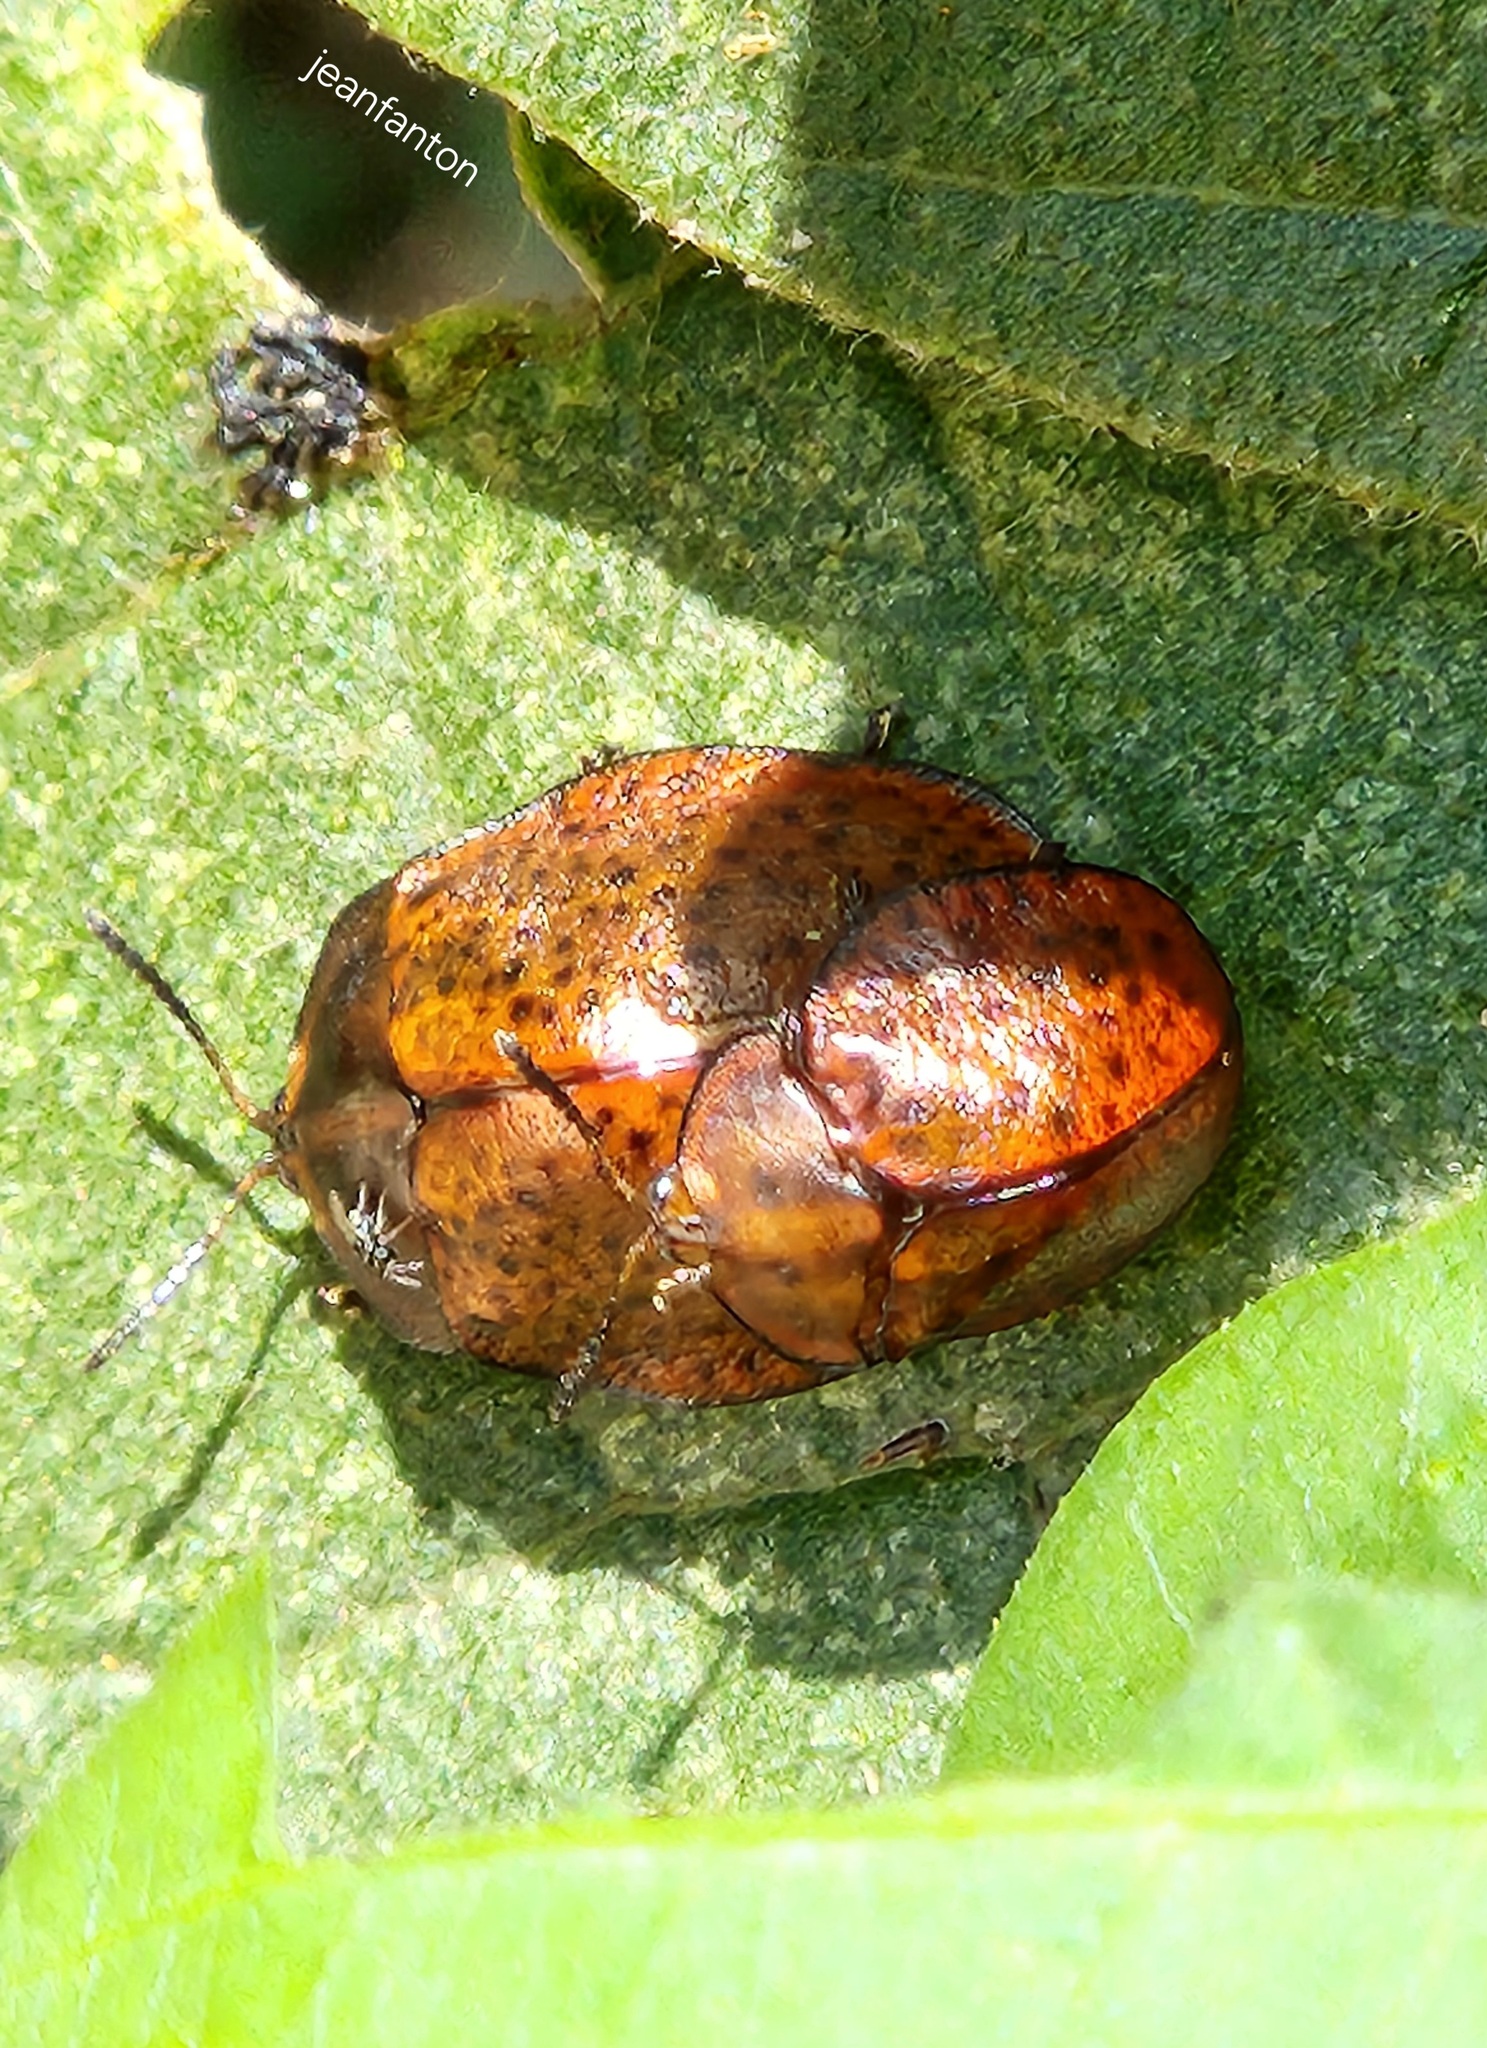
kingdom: Animalia
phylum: Arthropoda
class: Insecta
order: Coleoptera
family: Chrysomelidae
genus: Chelymorpha
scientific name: Chelymorpha inflata
